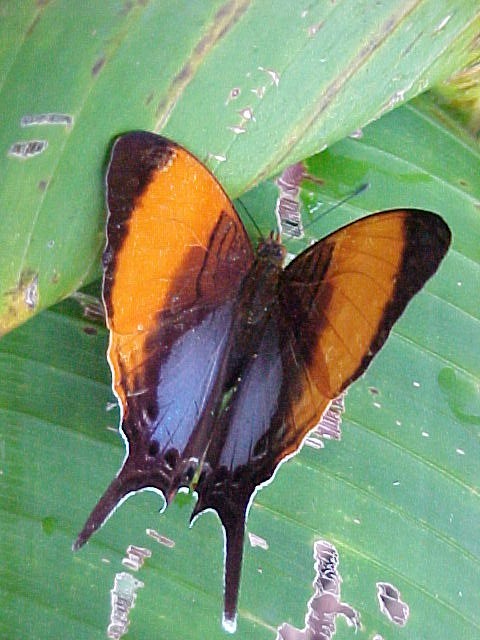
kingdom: Animalia
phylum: Arthropoda
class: Insecta
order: Lepidoptera
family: Nymphalidae
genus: Marpesia
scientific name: Marpesia marcella
